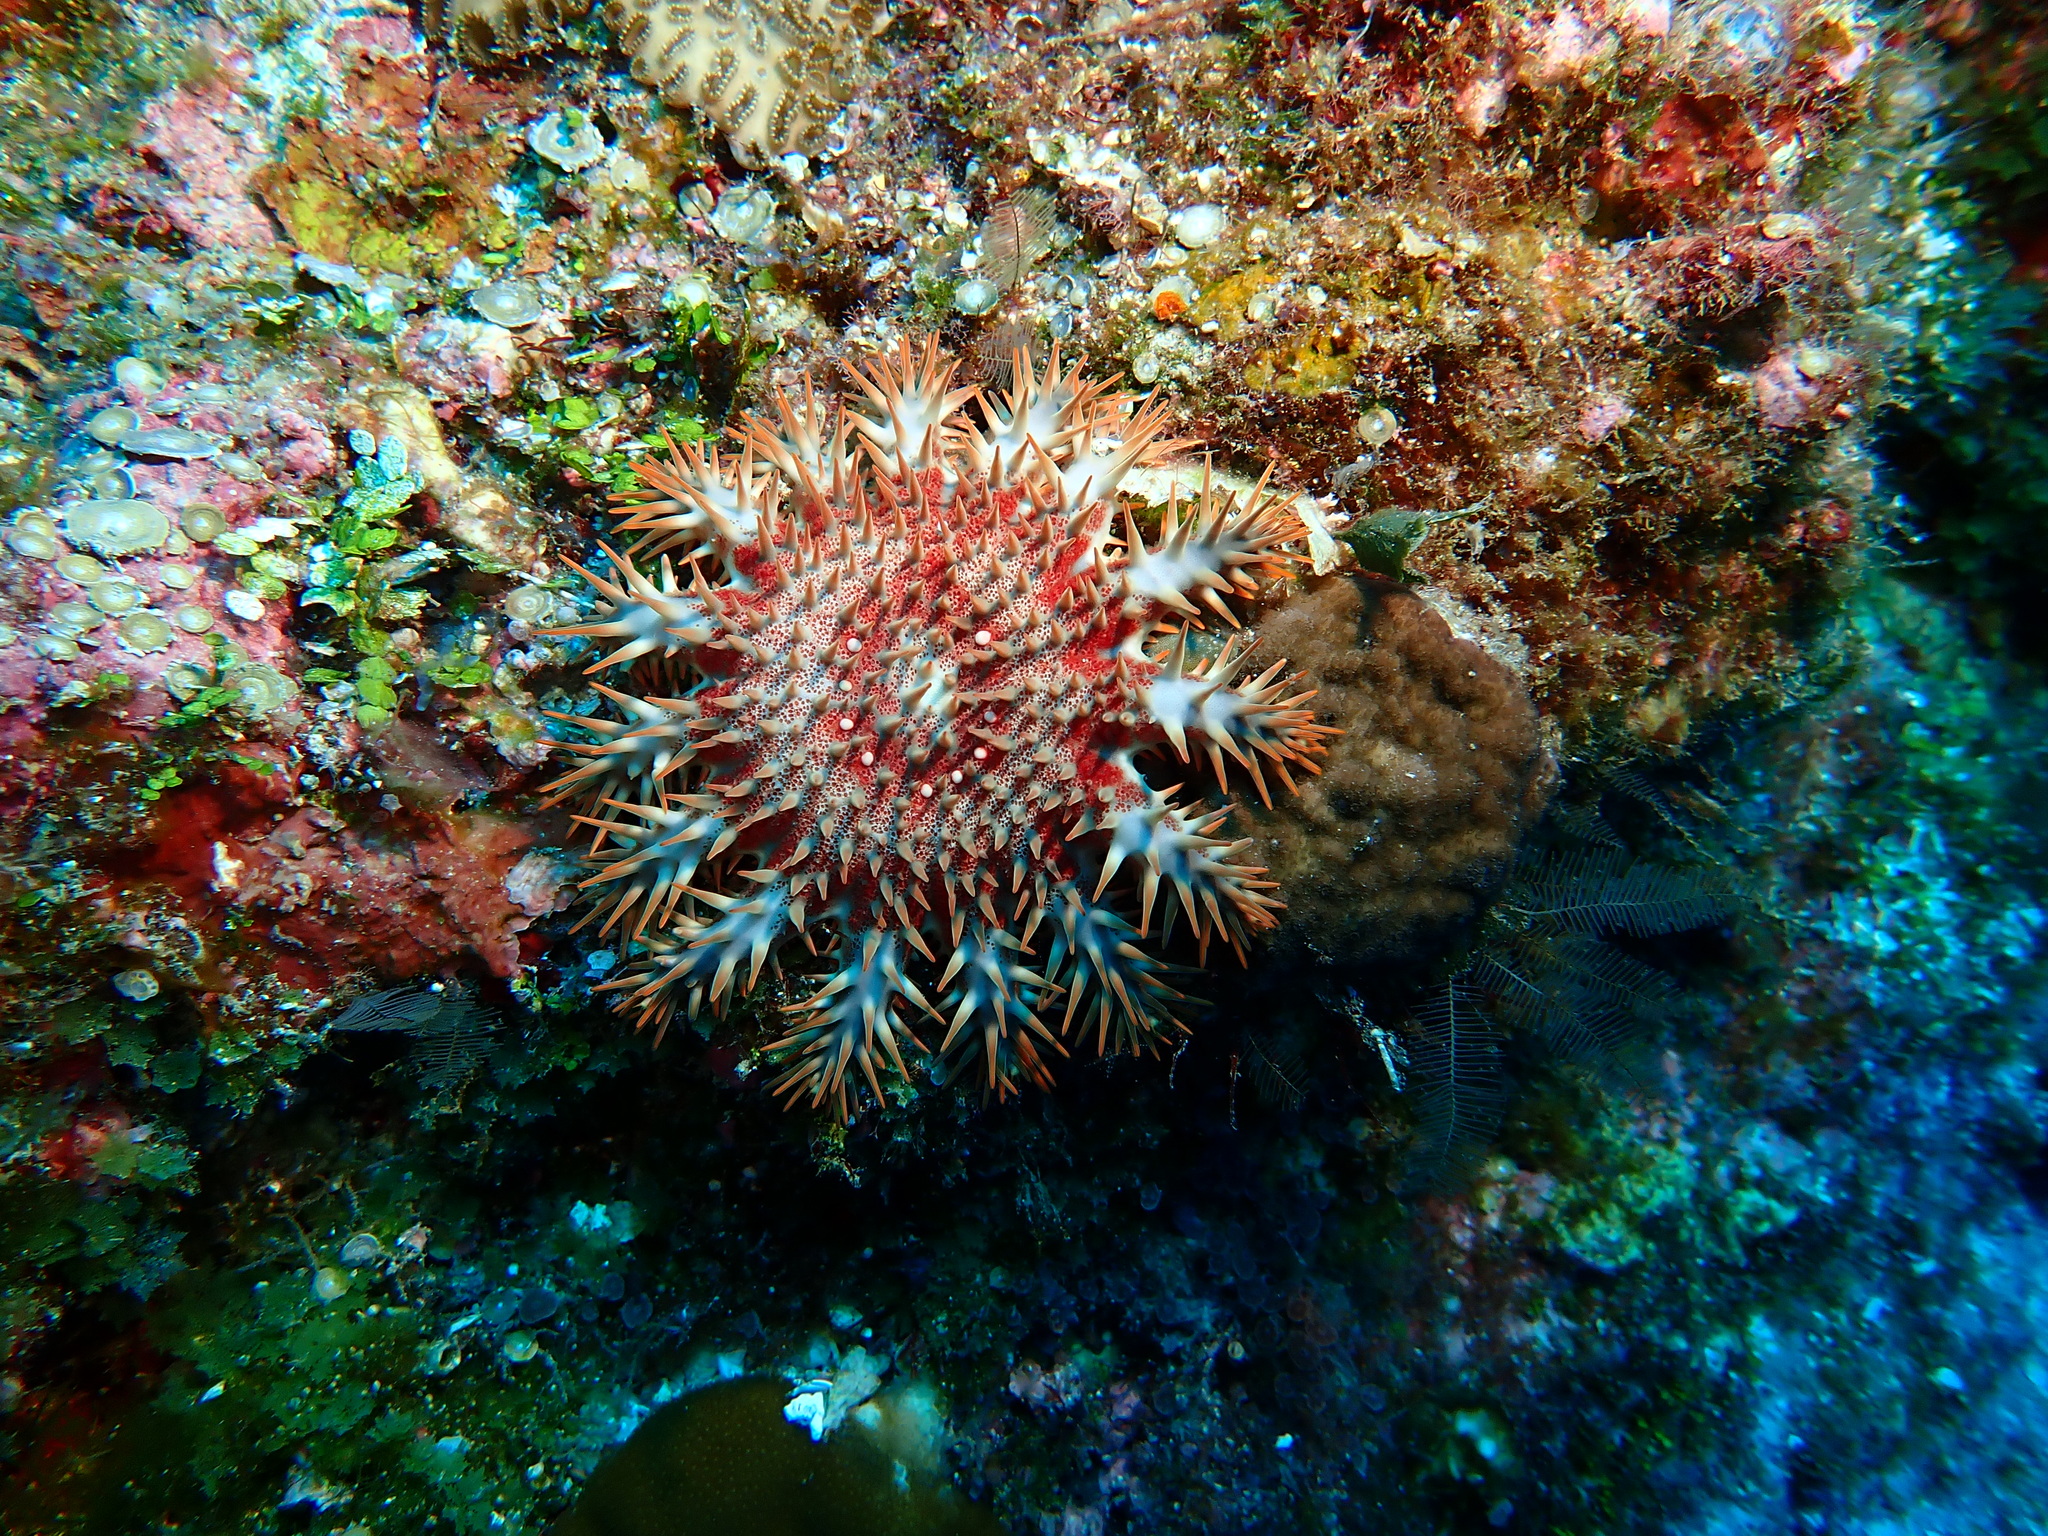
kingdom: Animalia
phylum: Echinodermata
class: Asteroidea
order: Valvatida
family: Acanthasteridae
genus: Acanthaster
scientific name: Acanthaster planci
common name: Crown-of-thorns
